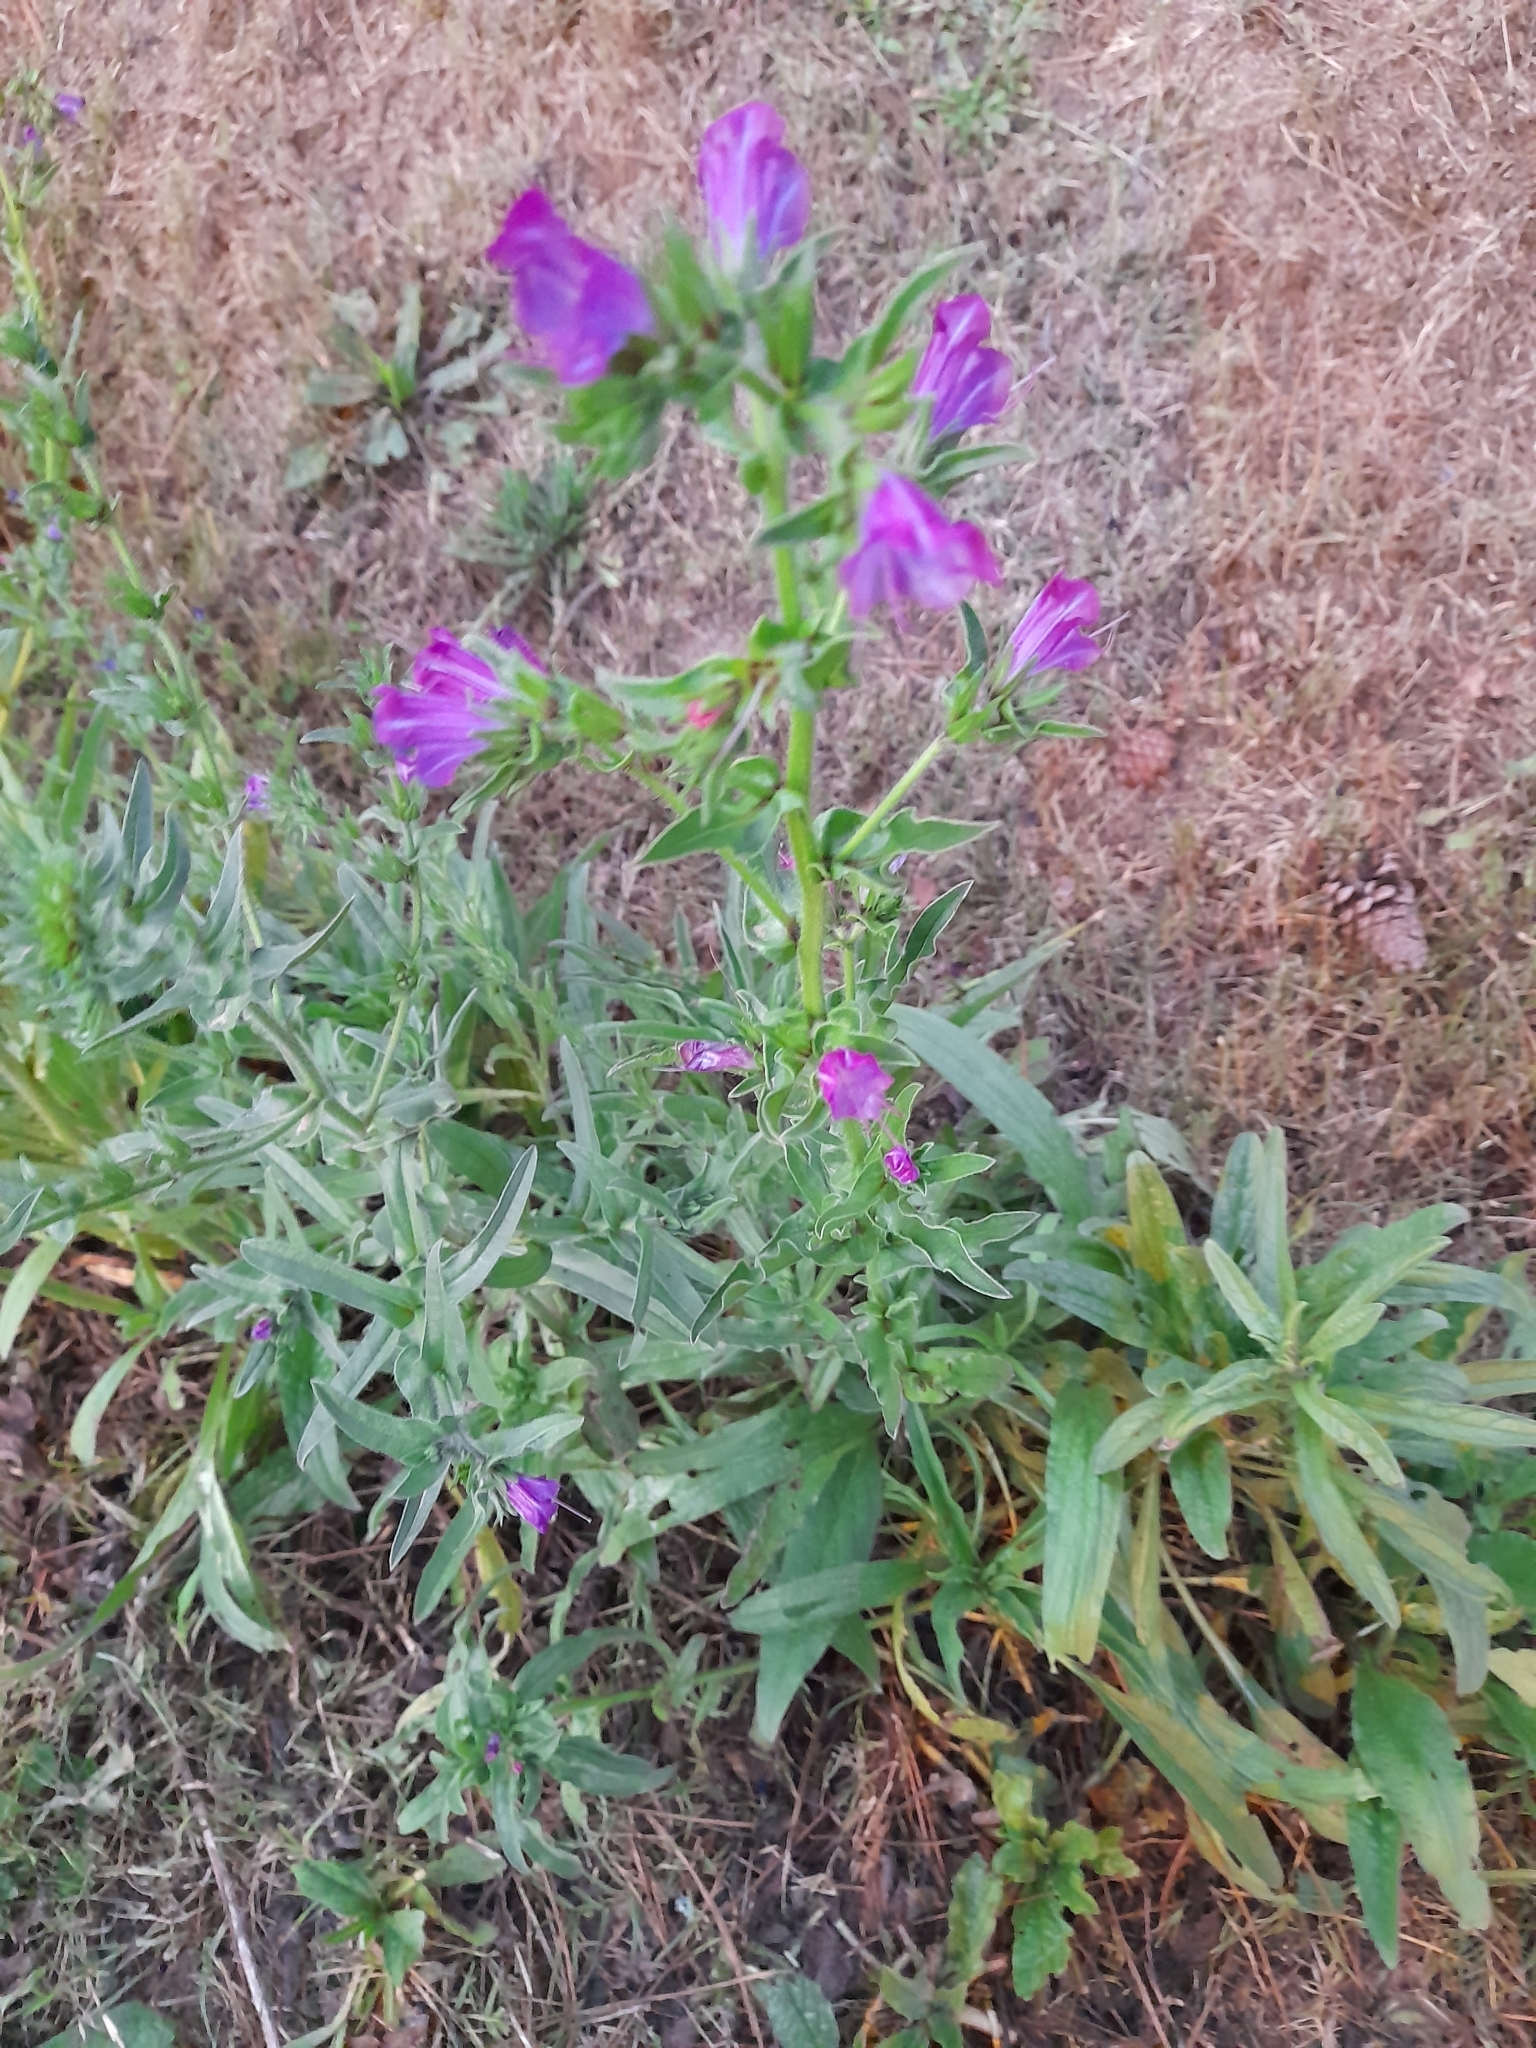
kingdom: Plantae
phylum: Tracheophyta
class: Magnoliopsida
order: Boraginales
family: Boraginaceae
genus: Echium
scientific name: Echium plantagineum
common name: Purple viper's-bugloss
